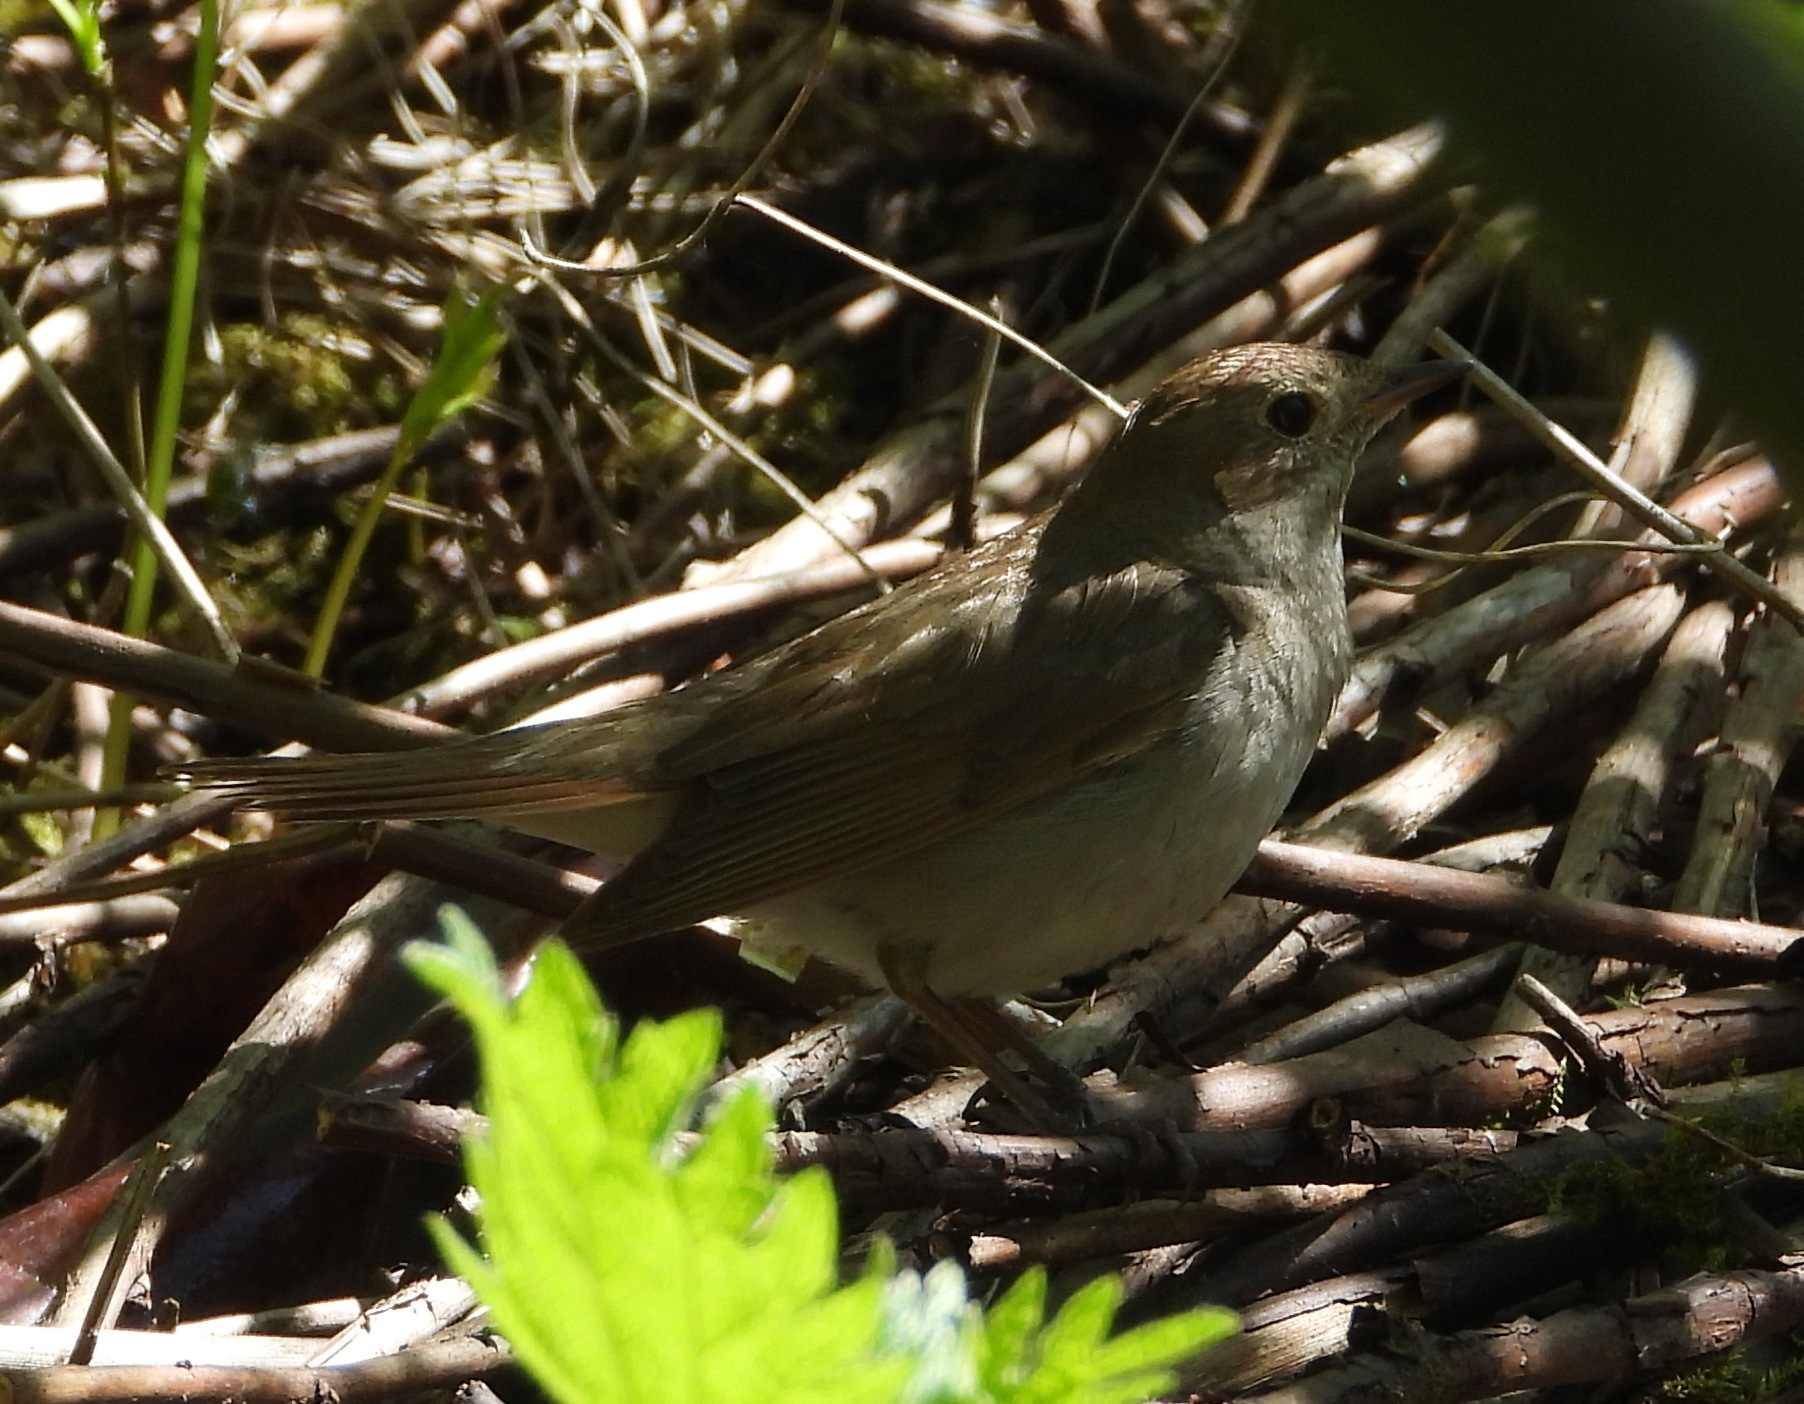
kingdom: Animalia
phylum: Chordata
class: Aves
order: Passeriformes
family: Muscicapidae
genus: Luscinia
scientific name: Luscinia luscinia
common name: Thrush nightingale
